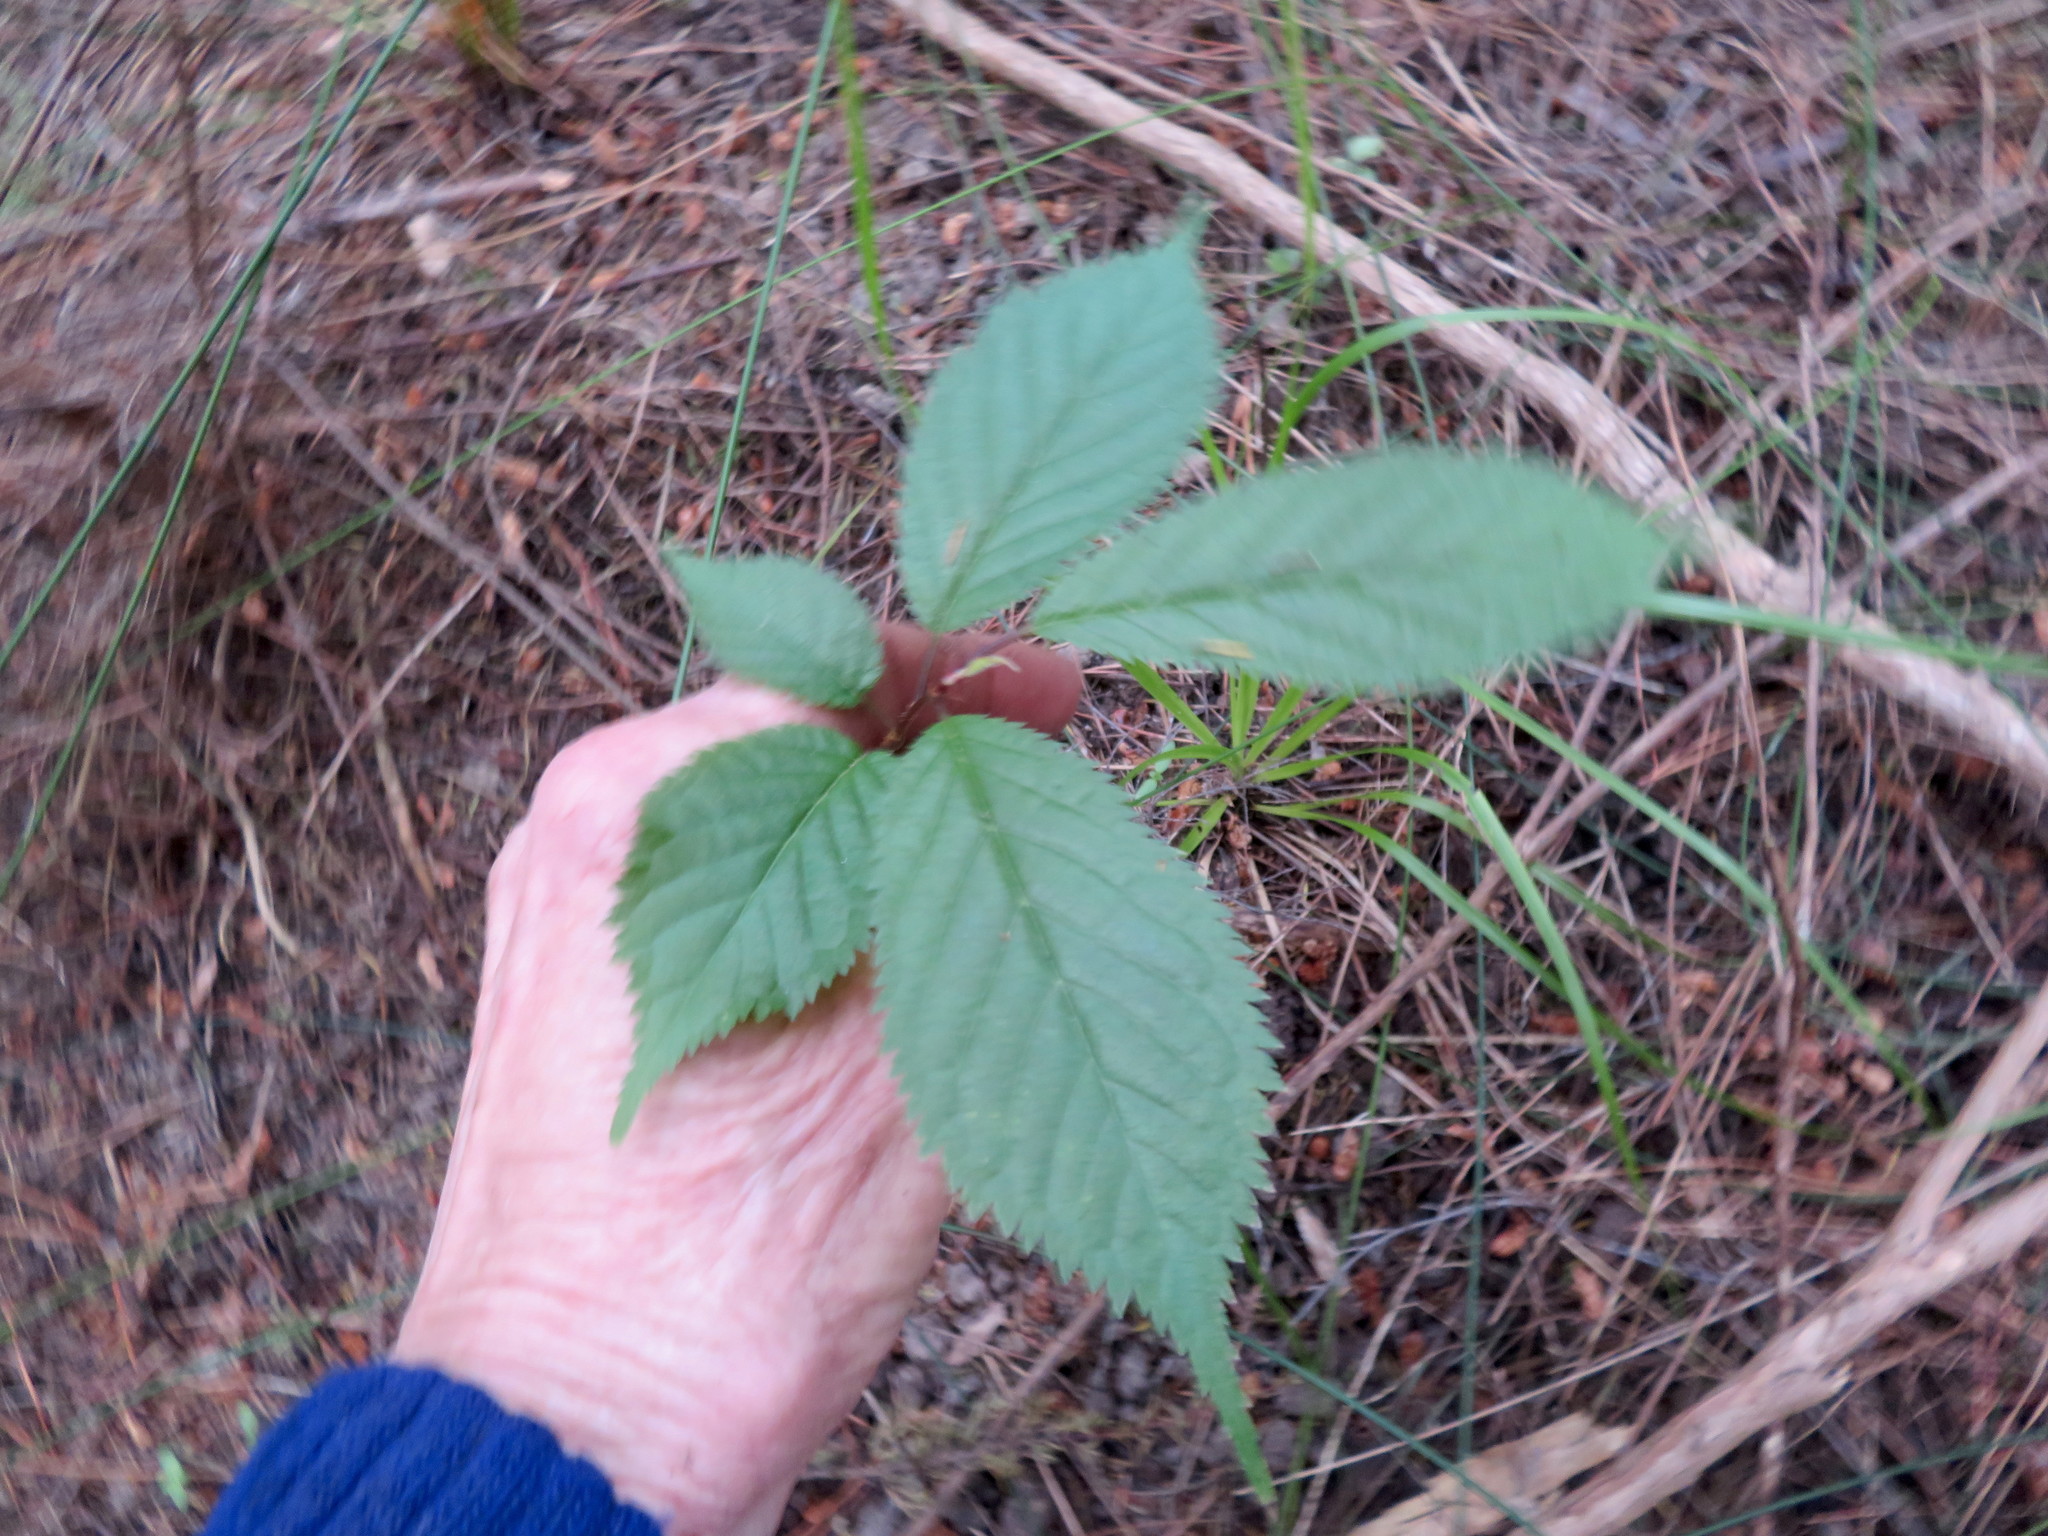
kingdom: Plantae
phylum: Tracheophyta
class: Magnoliopsida
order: Rosales
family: Rosaceae
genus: Prunus
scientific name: Prunus serrulata
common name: Japanese cherry
